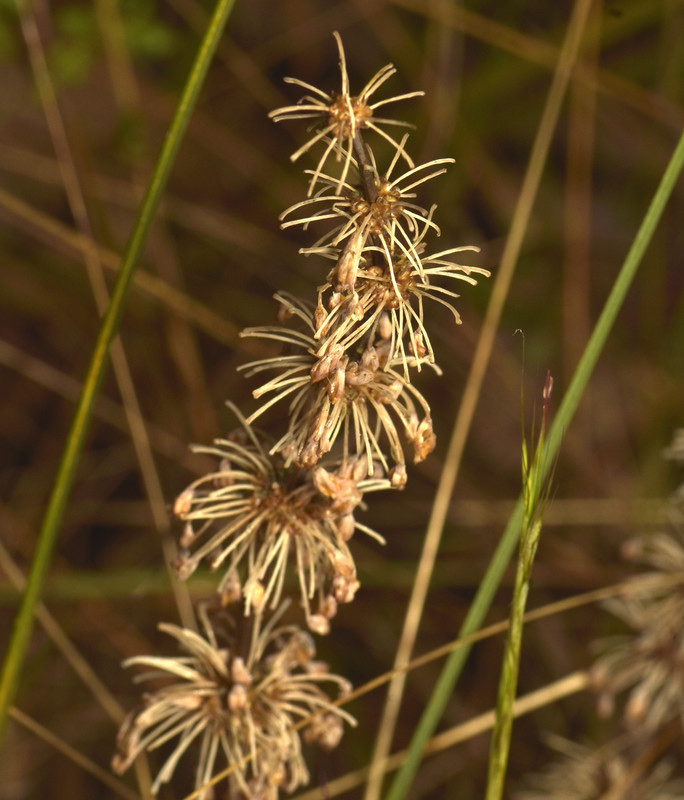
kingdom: Plantae
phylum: Tracheophyta
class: Liliopsida
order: Asparagales
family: Asparagaceae
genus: Lomandra
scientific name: Lomandra multiflora
